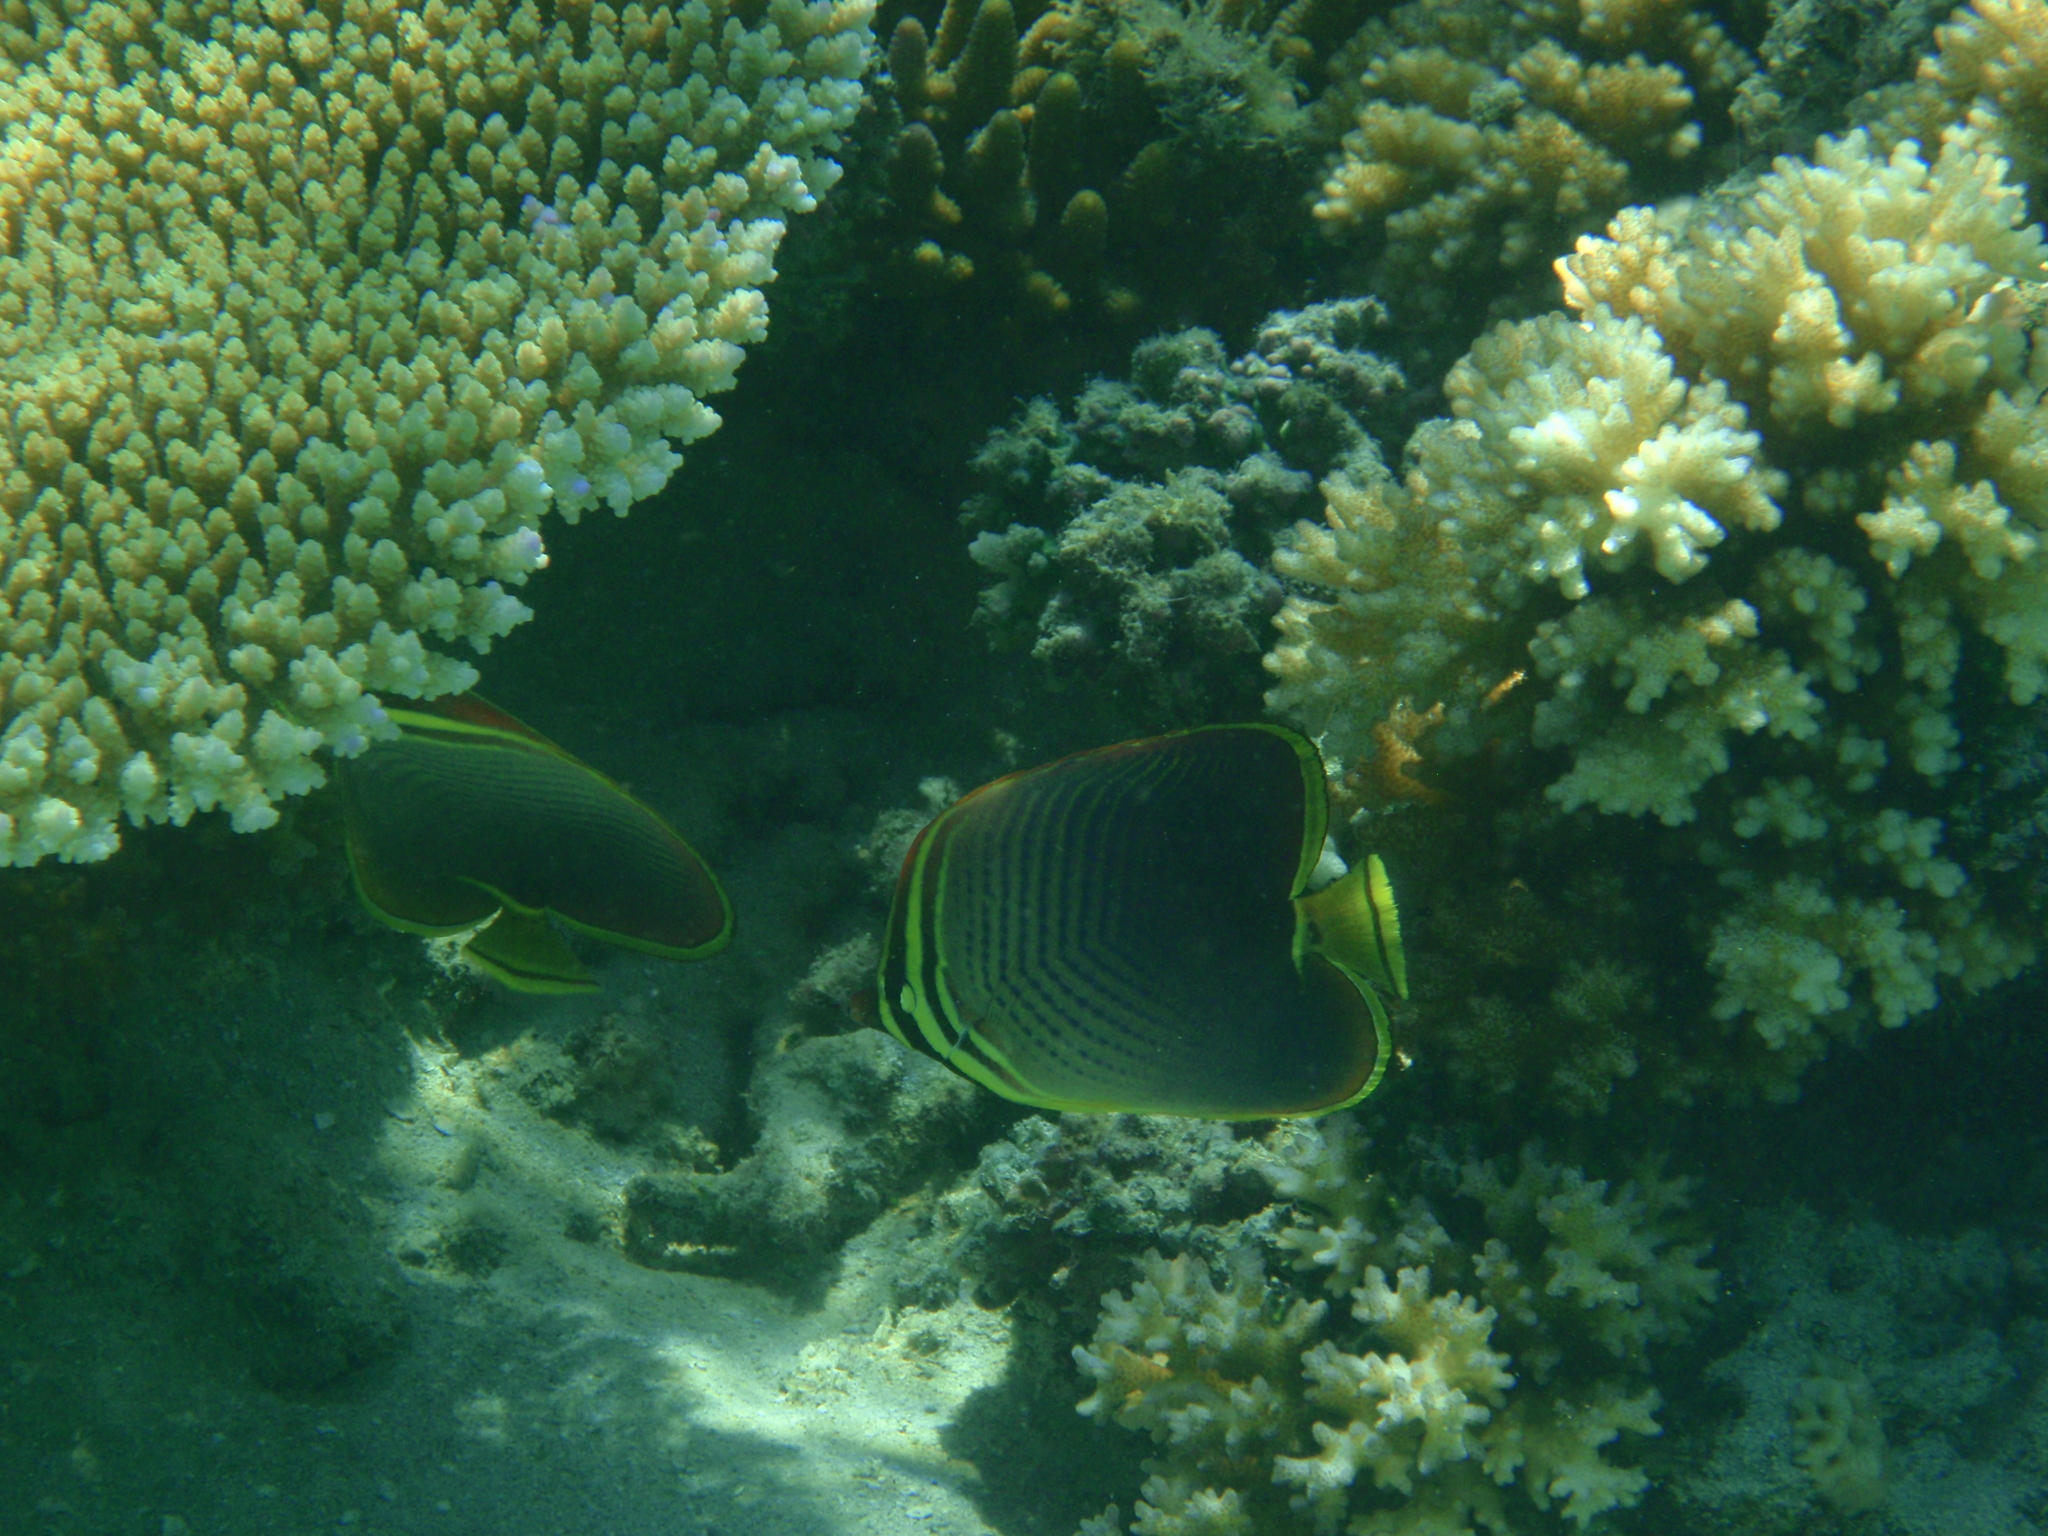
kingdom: Animalia
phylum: Chordata
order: Perciformes
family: Chaetodontidae
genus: Chaetodon
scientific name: Chaetodon baronessa
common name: Triangular butterflyfish
